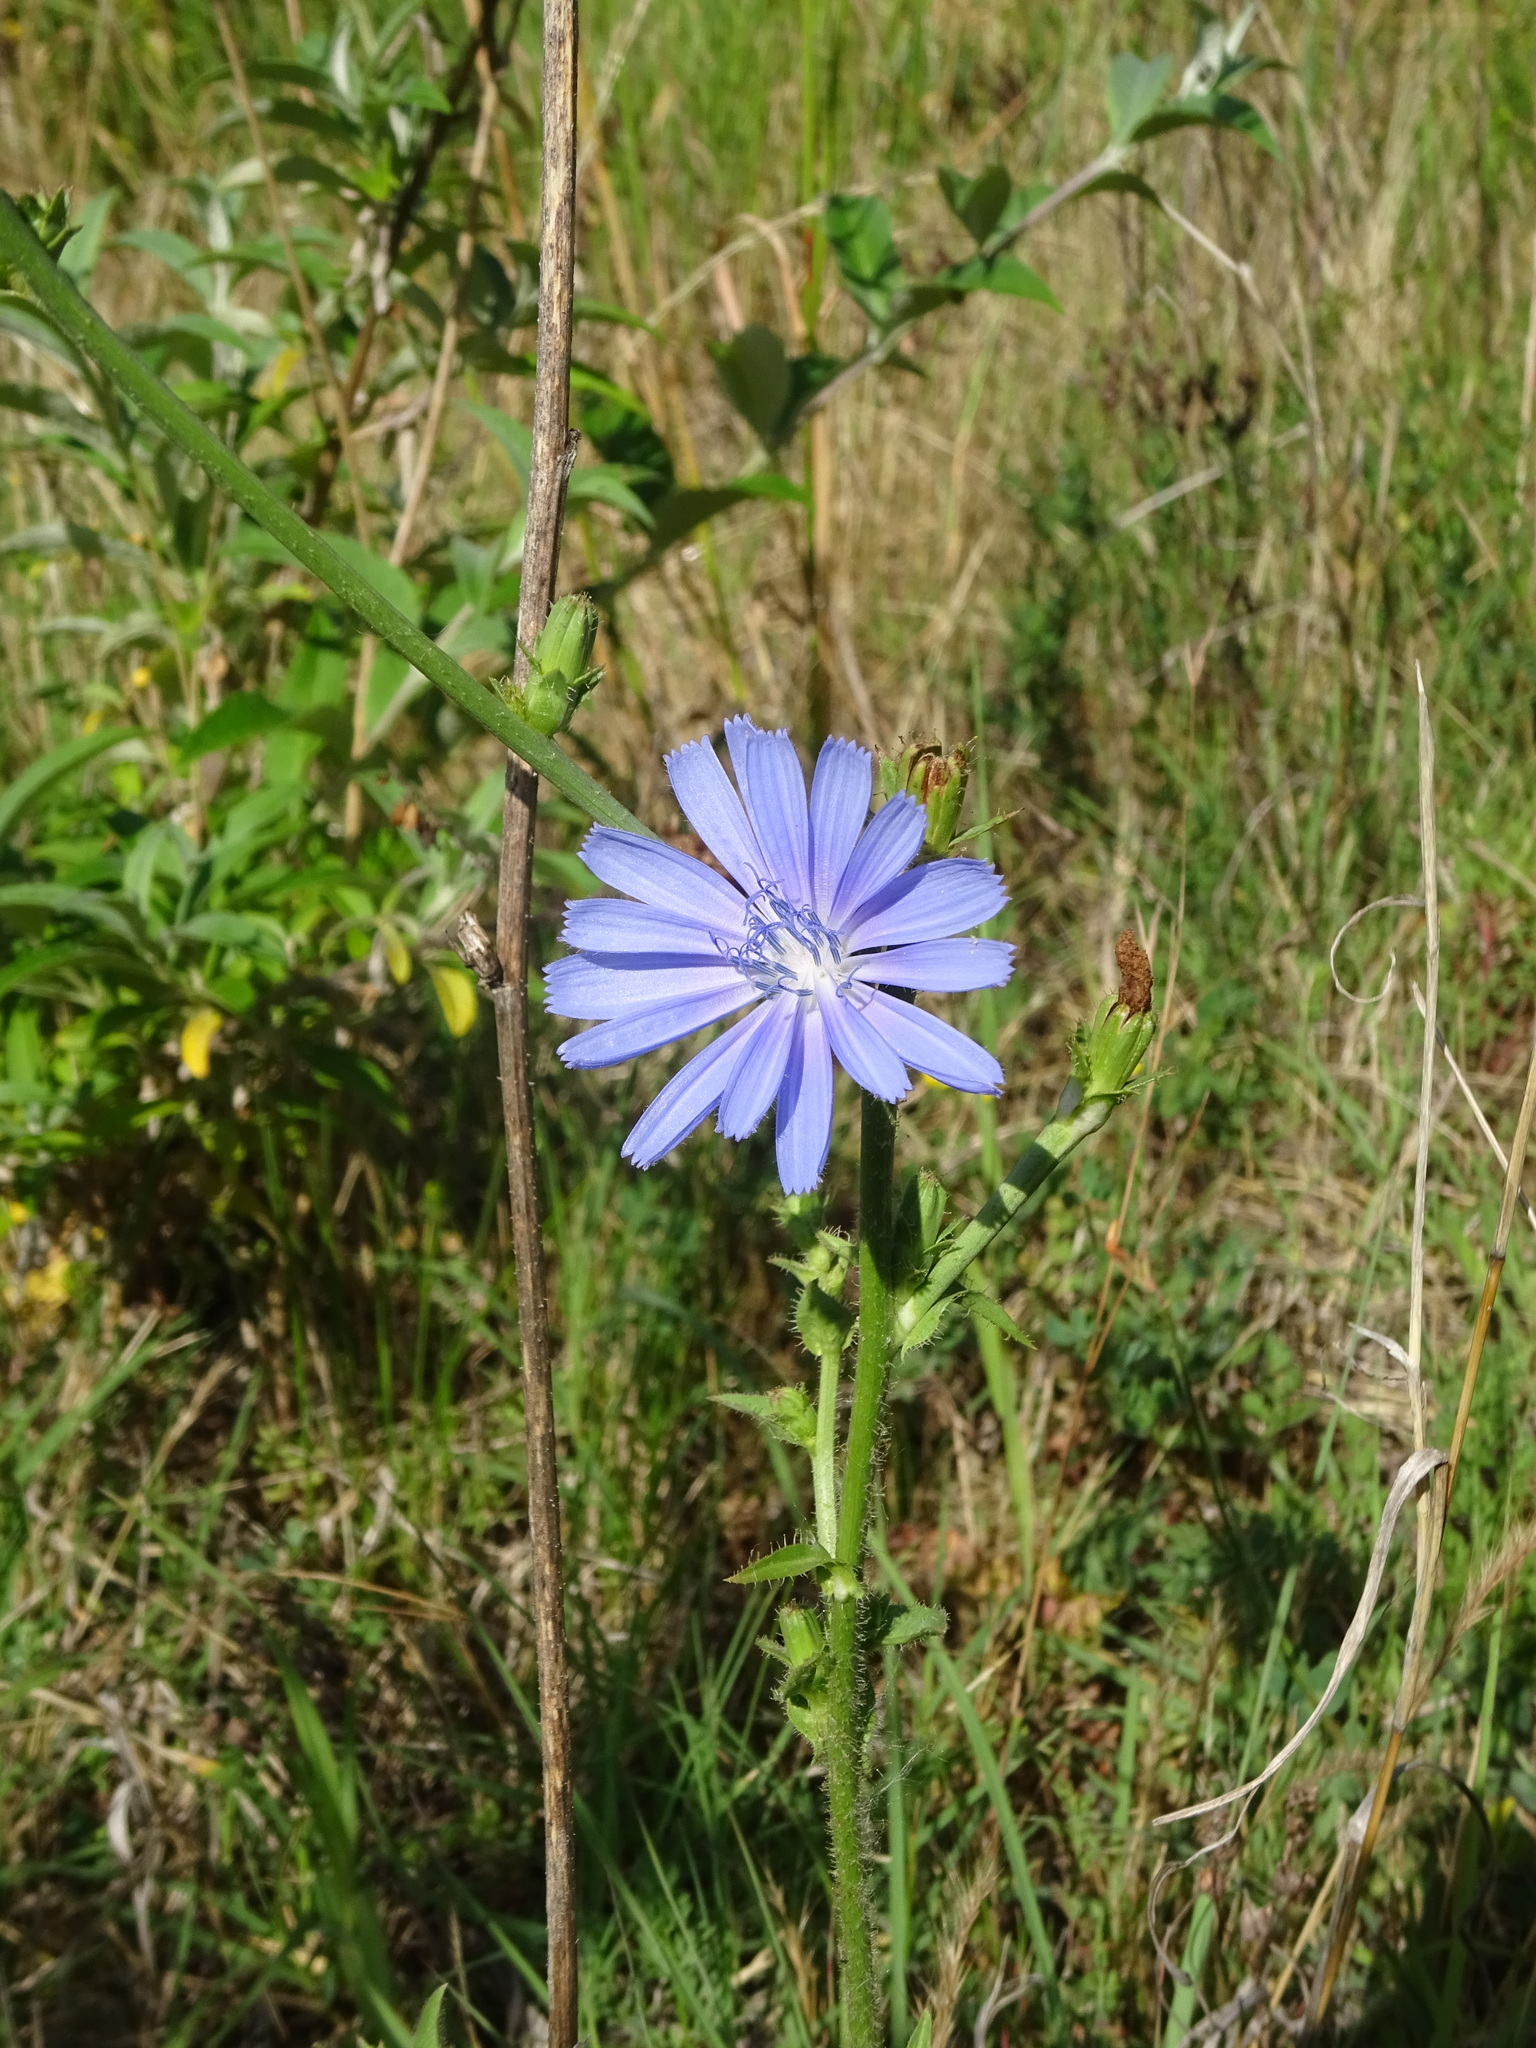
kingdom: Plantae
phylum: Tracheophyta
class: Magnoliopsida
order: Asterales
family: Asteraceae
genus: Cichorium
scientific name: Cichorium intybus
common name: Chicory
